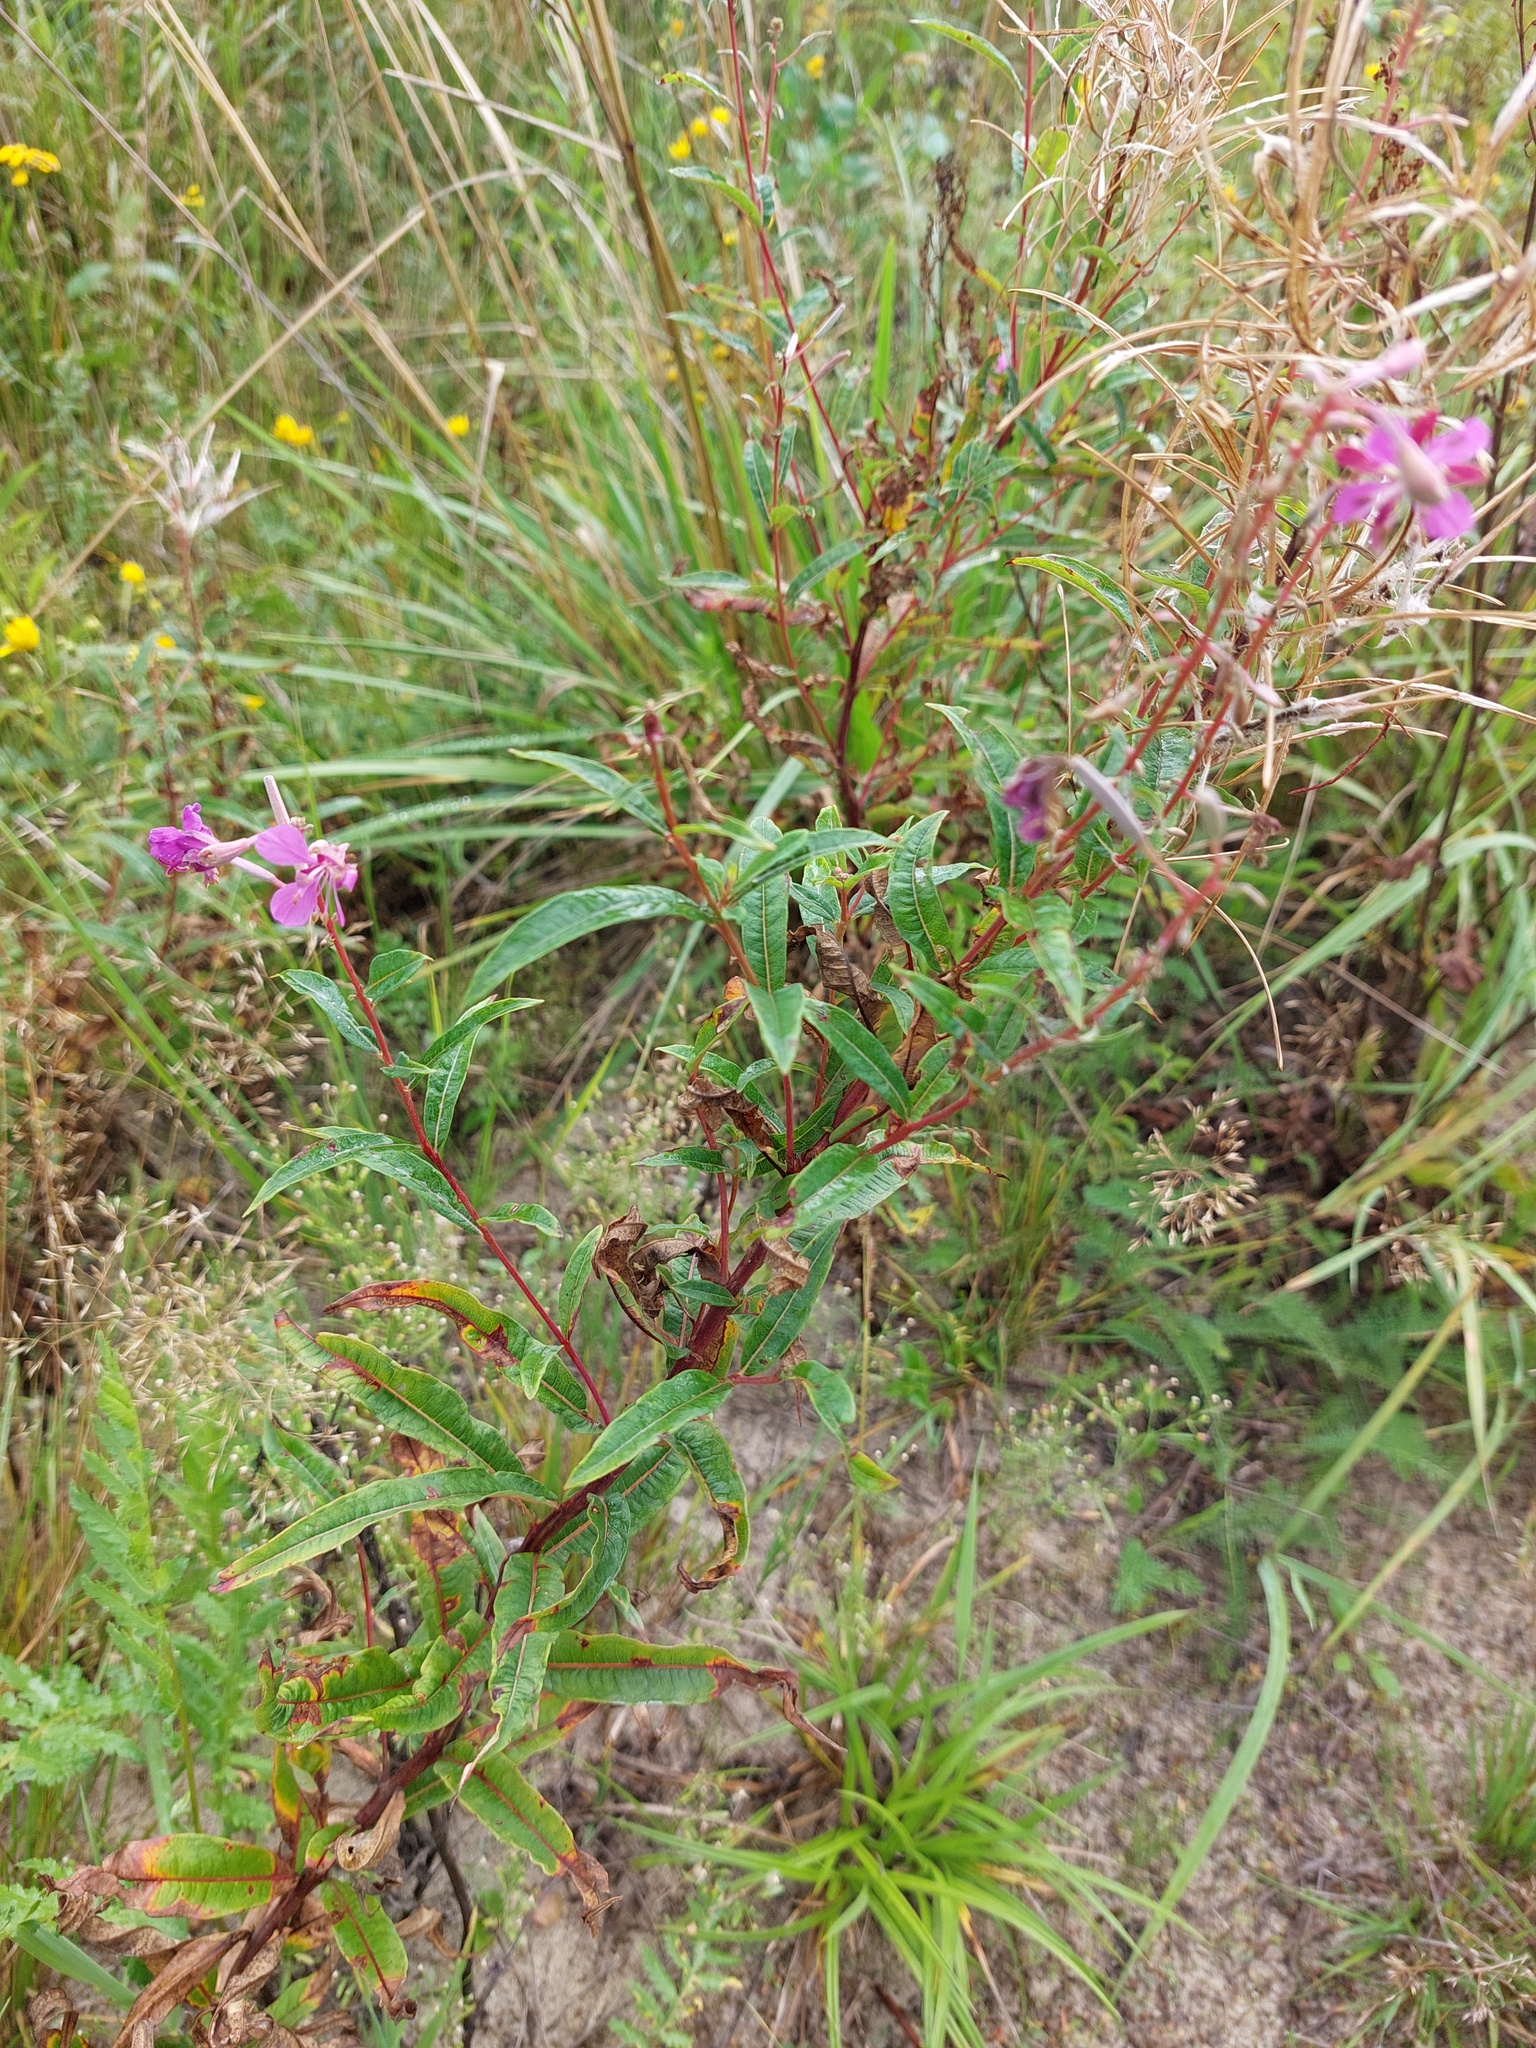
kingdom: Plantae
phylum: Tracheophyta
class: Magnoliopsida
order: Myrtales
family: Onagraceae
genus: Chamaenerion
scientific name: Chamaenerion angustifolium
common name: Fireweed
